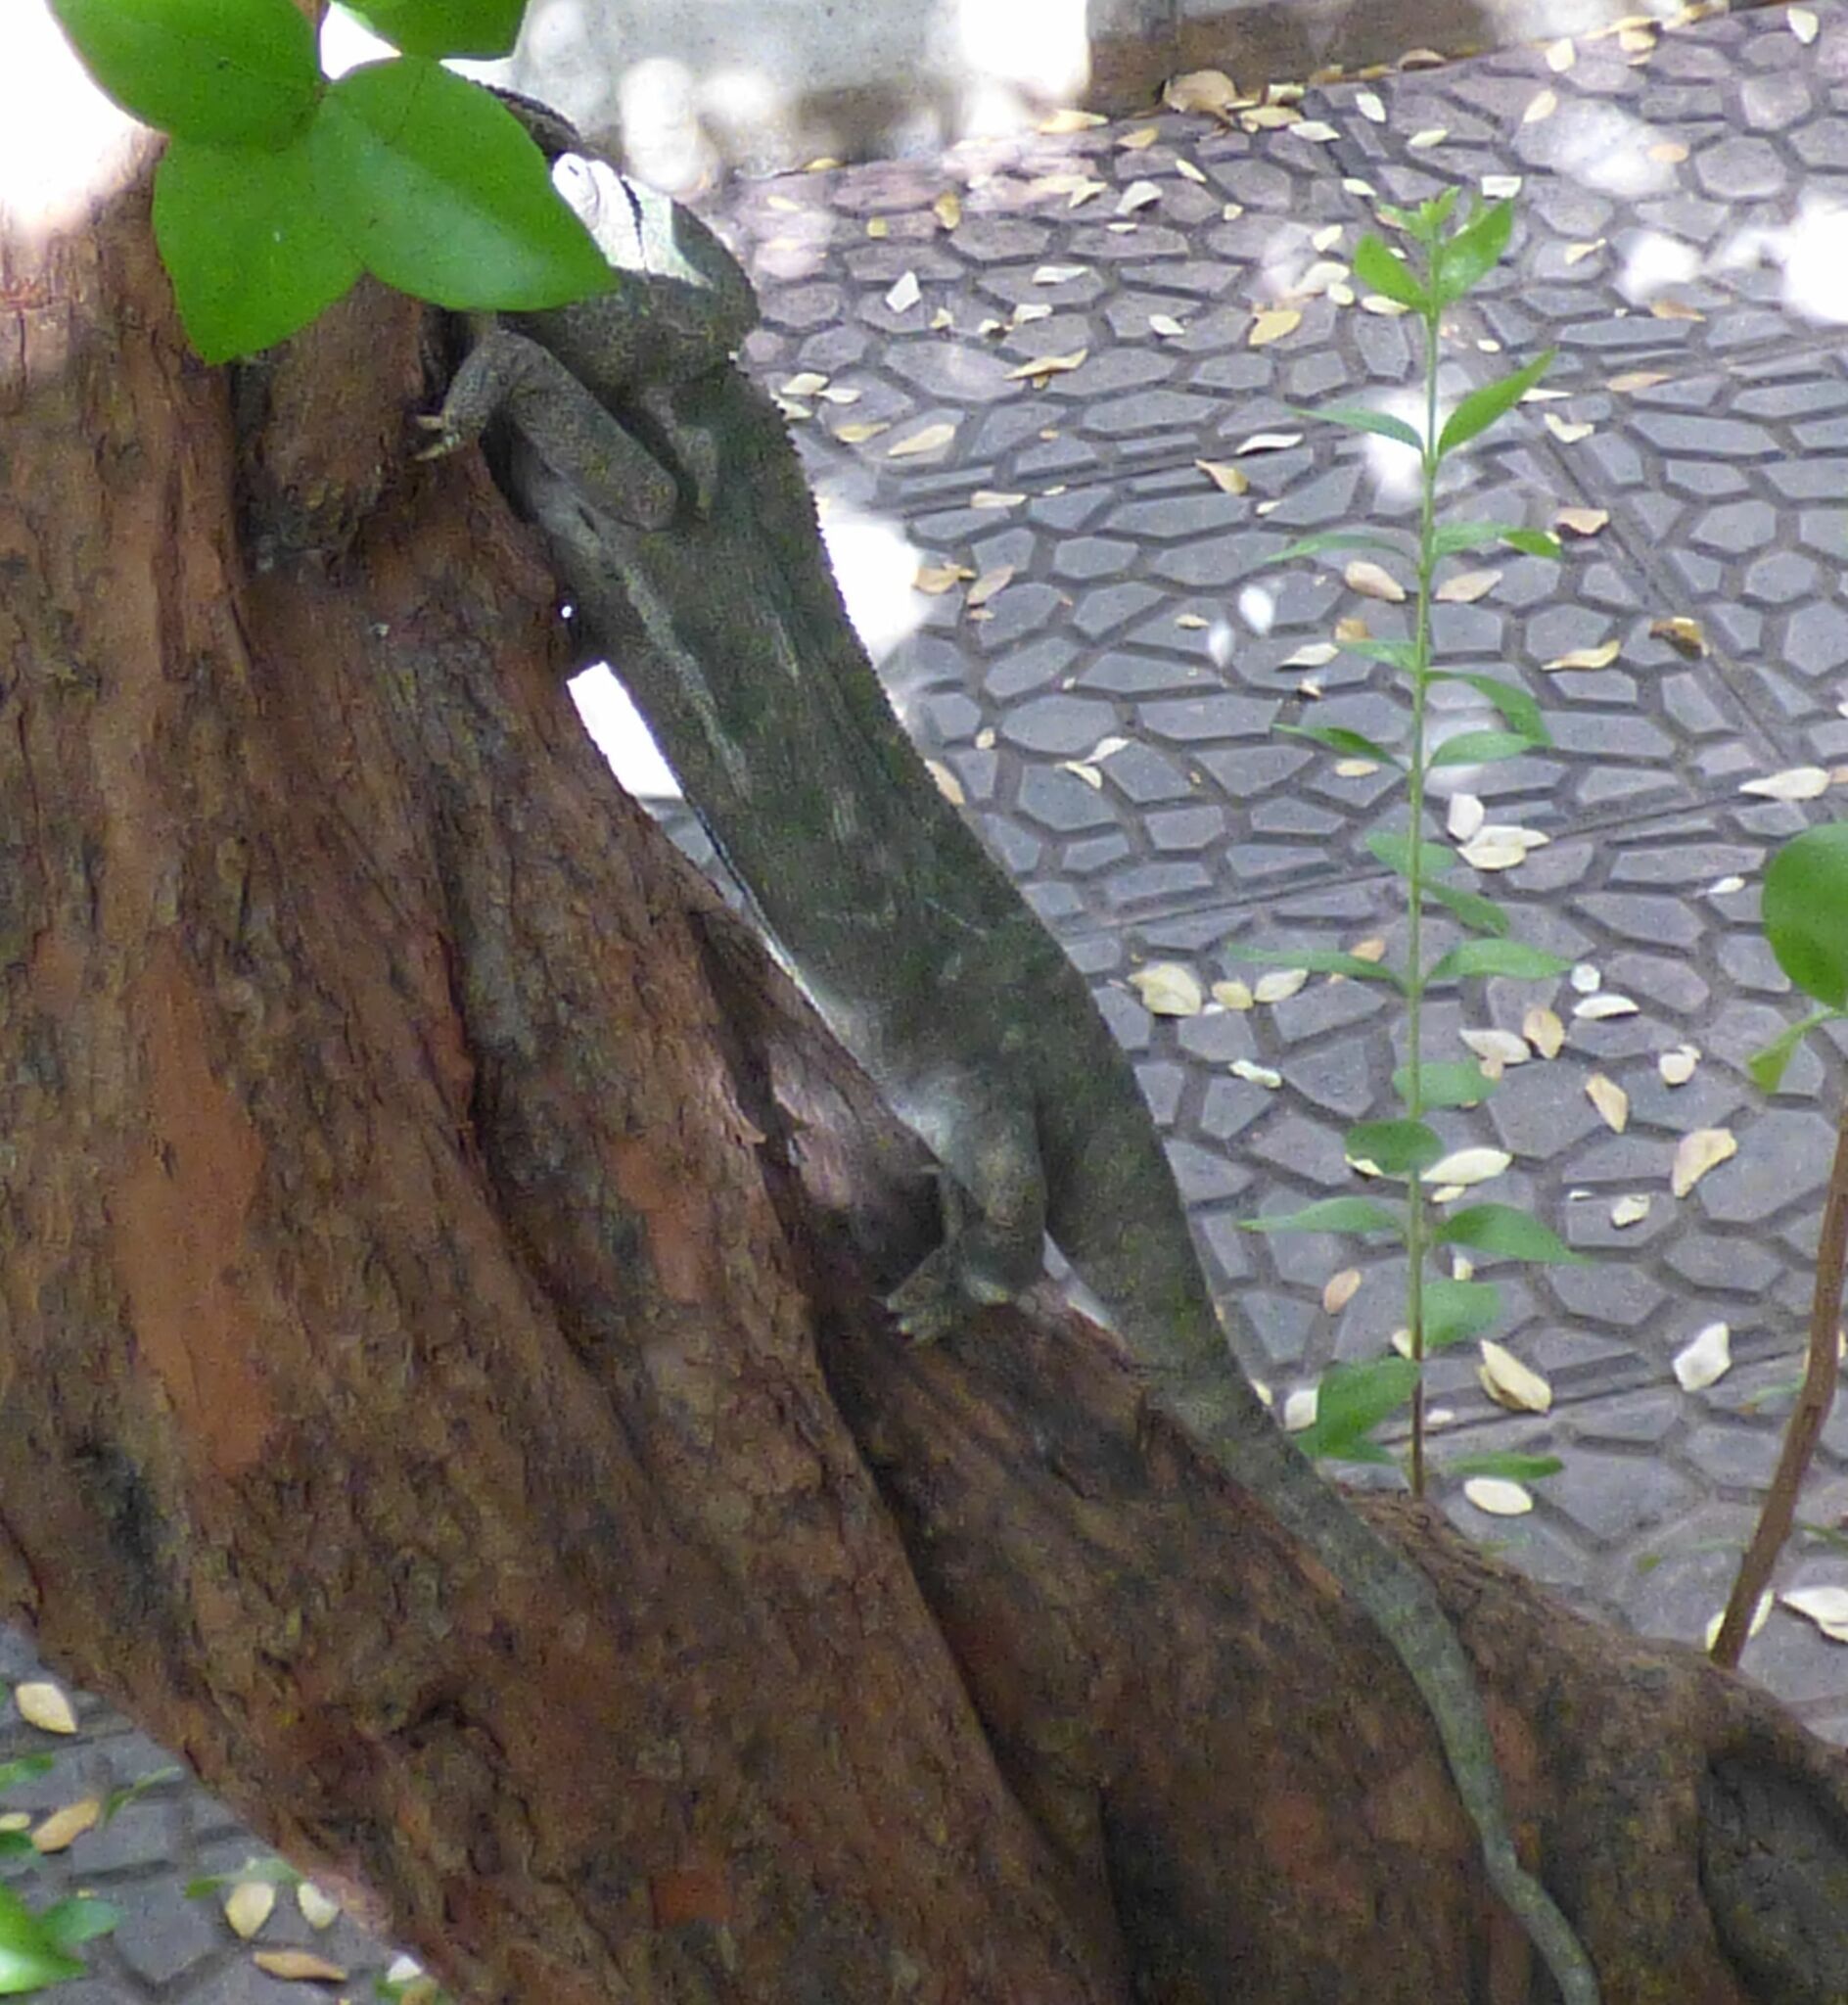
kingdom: Animalia
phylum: Chordata
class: Squamata
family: Chamaeleonidae
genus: Chamaeleo
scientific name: Chamaeleo chamaeleon
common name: Mediterranean chameleon
